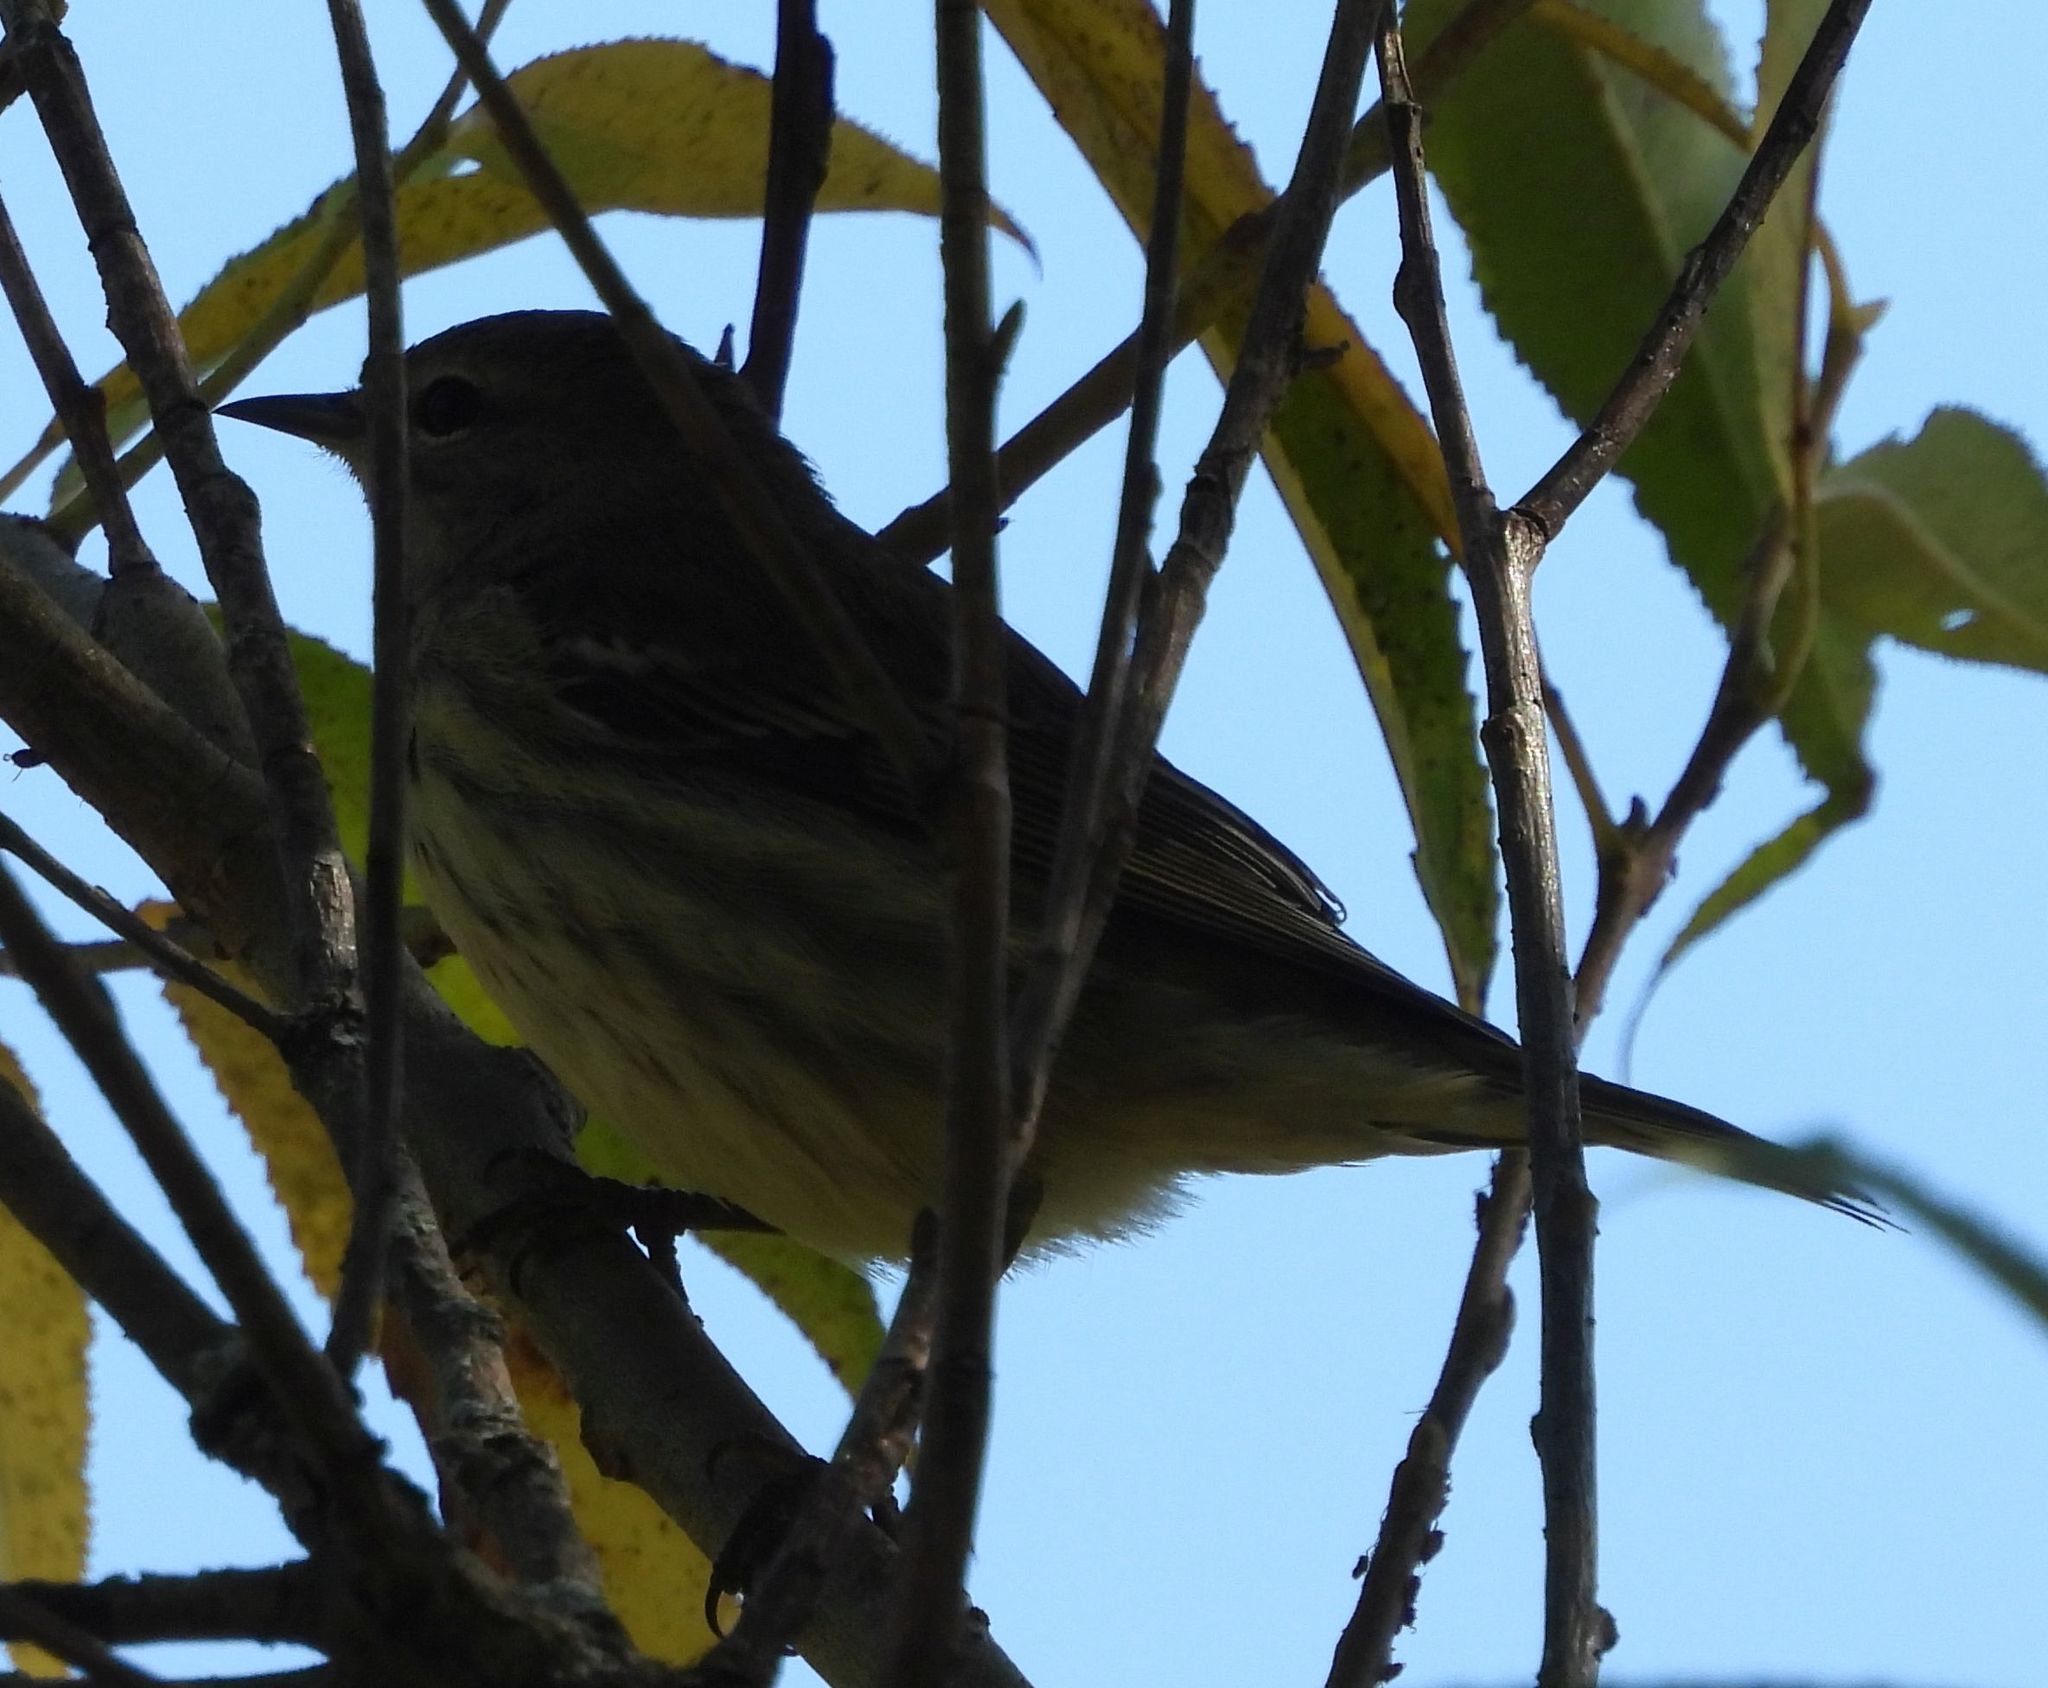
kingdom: Animalia
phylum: Chordata
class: Aves
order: Passeriformes
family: Parulidae
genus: Setophaga
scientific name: Setophaga tigrina
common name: Cape may warbler
